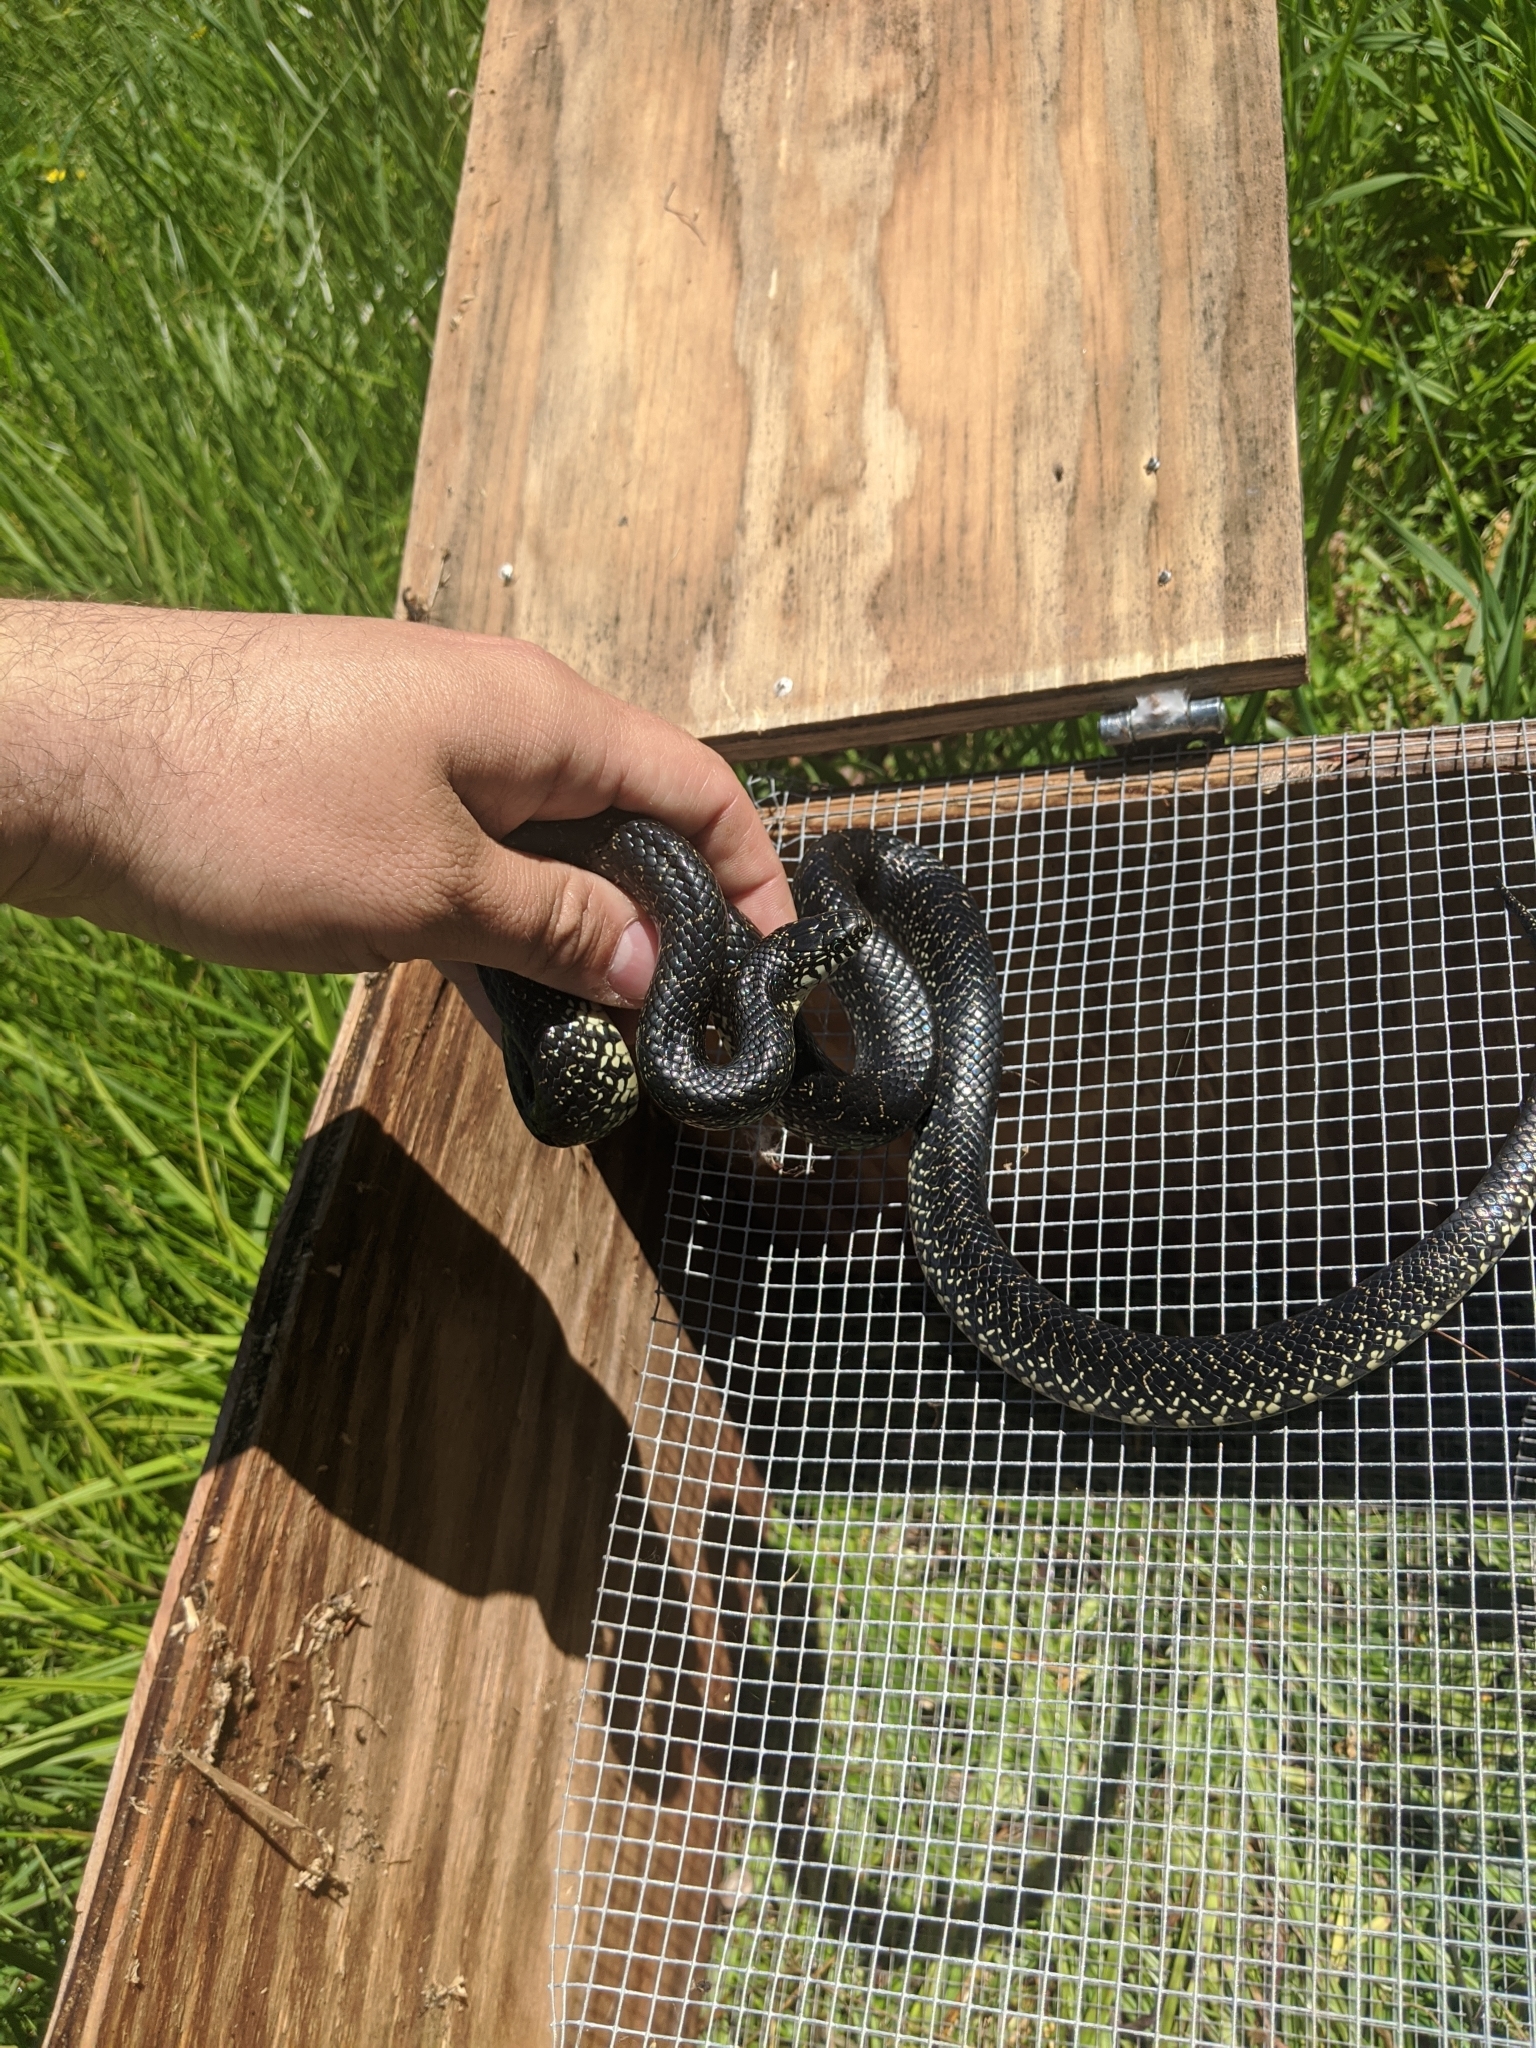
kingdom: Animalia
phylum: Chordata
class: Squamata
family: Colubridae
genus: Lampropeltis
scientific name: Lampropeltis nigra
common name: Black kingsnake
